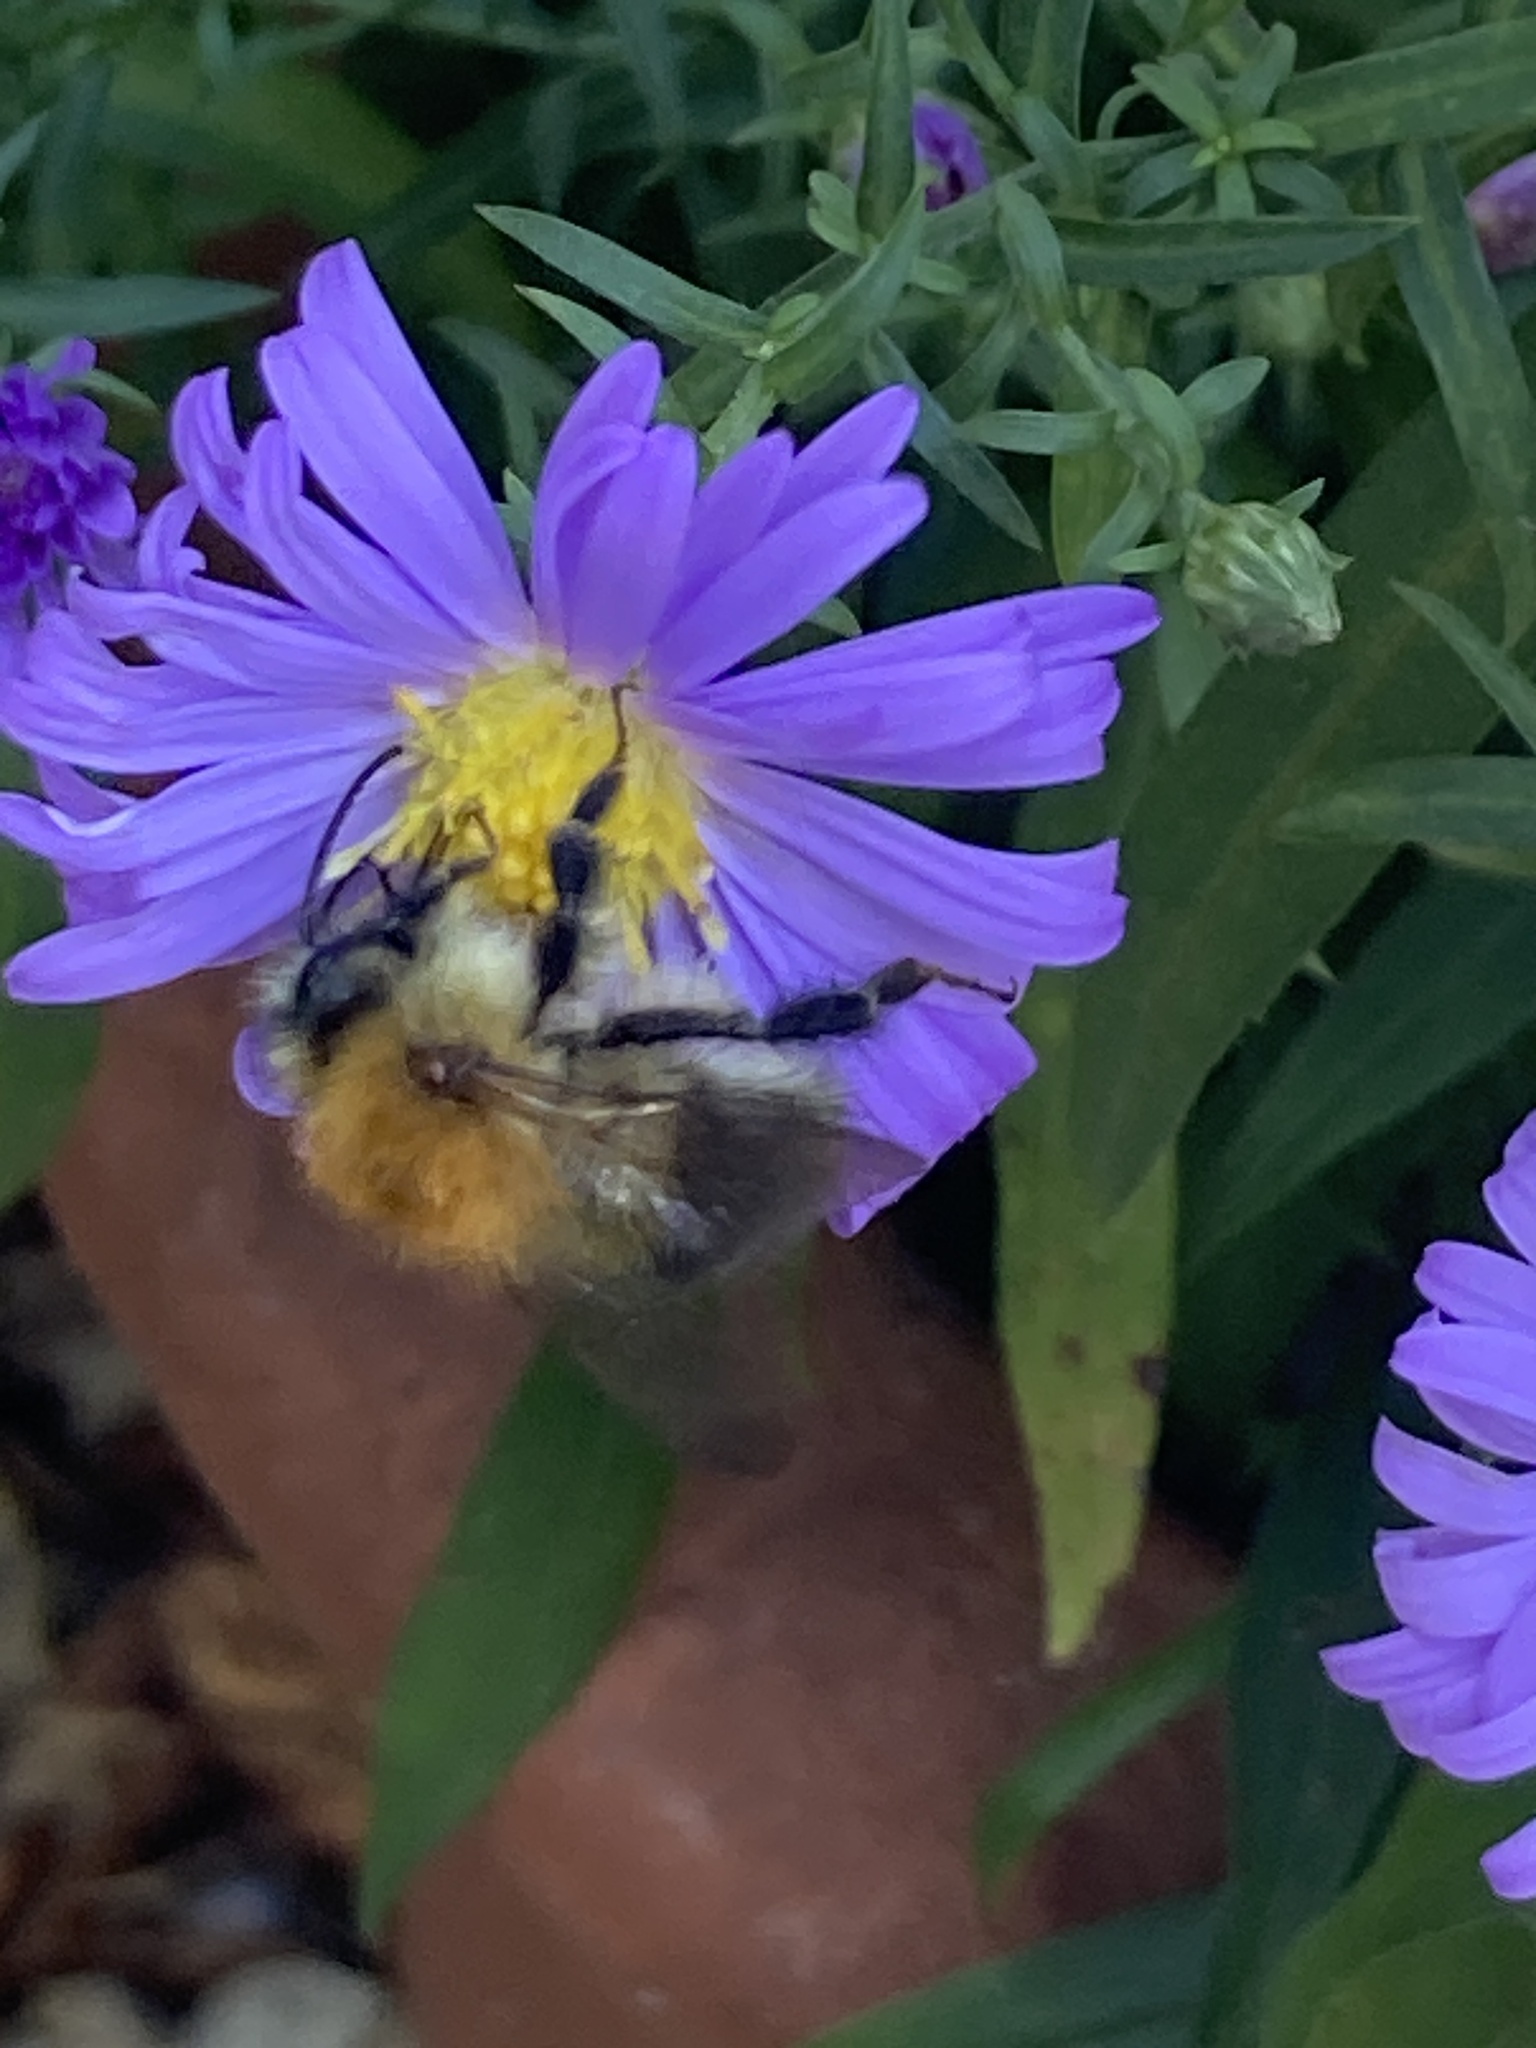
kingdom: Animalia
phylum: Arthropoda
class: Insecta
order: Hymenoptera
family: Apidae
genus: Bombus
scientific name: Bombus pascuorum
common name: Common carder bee
